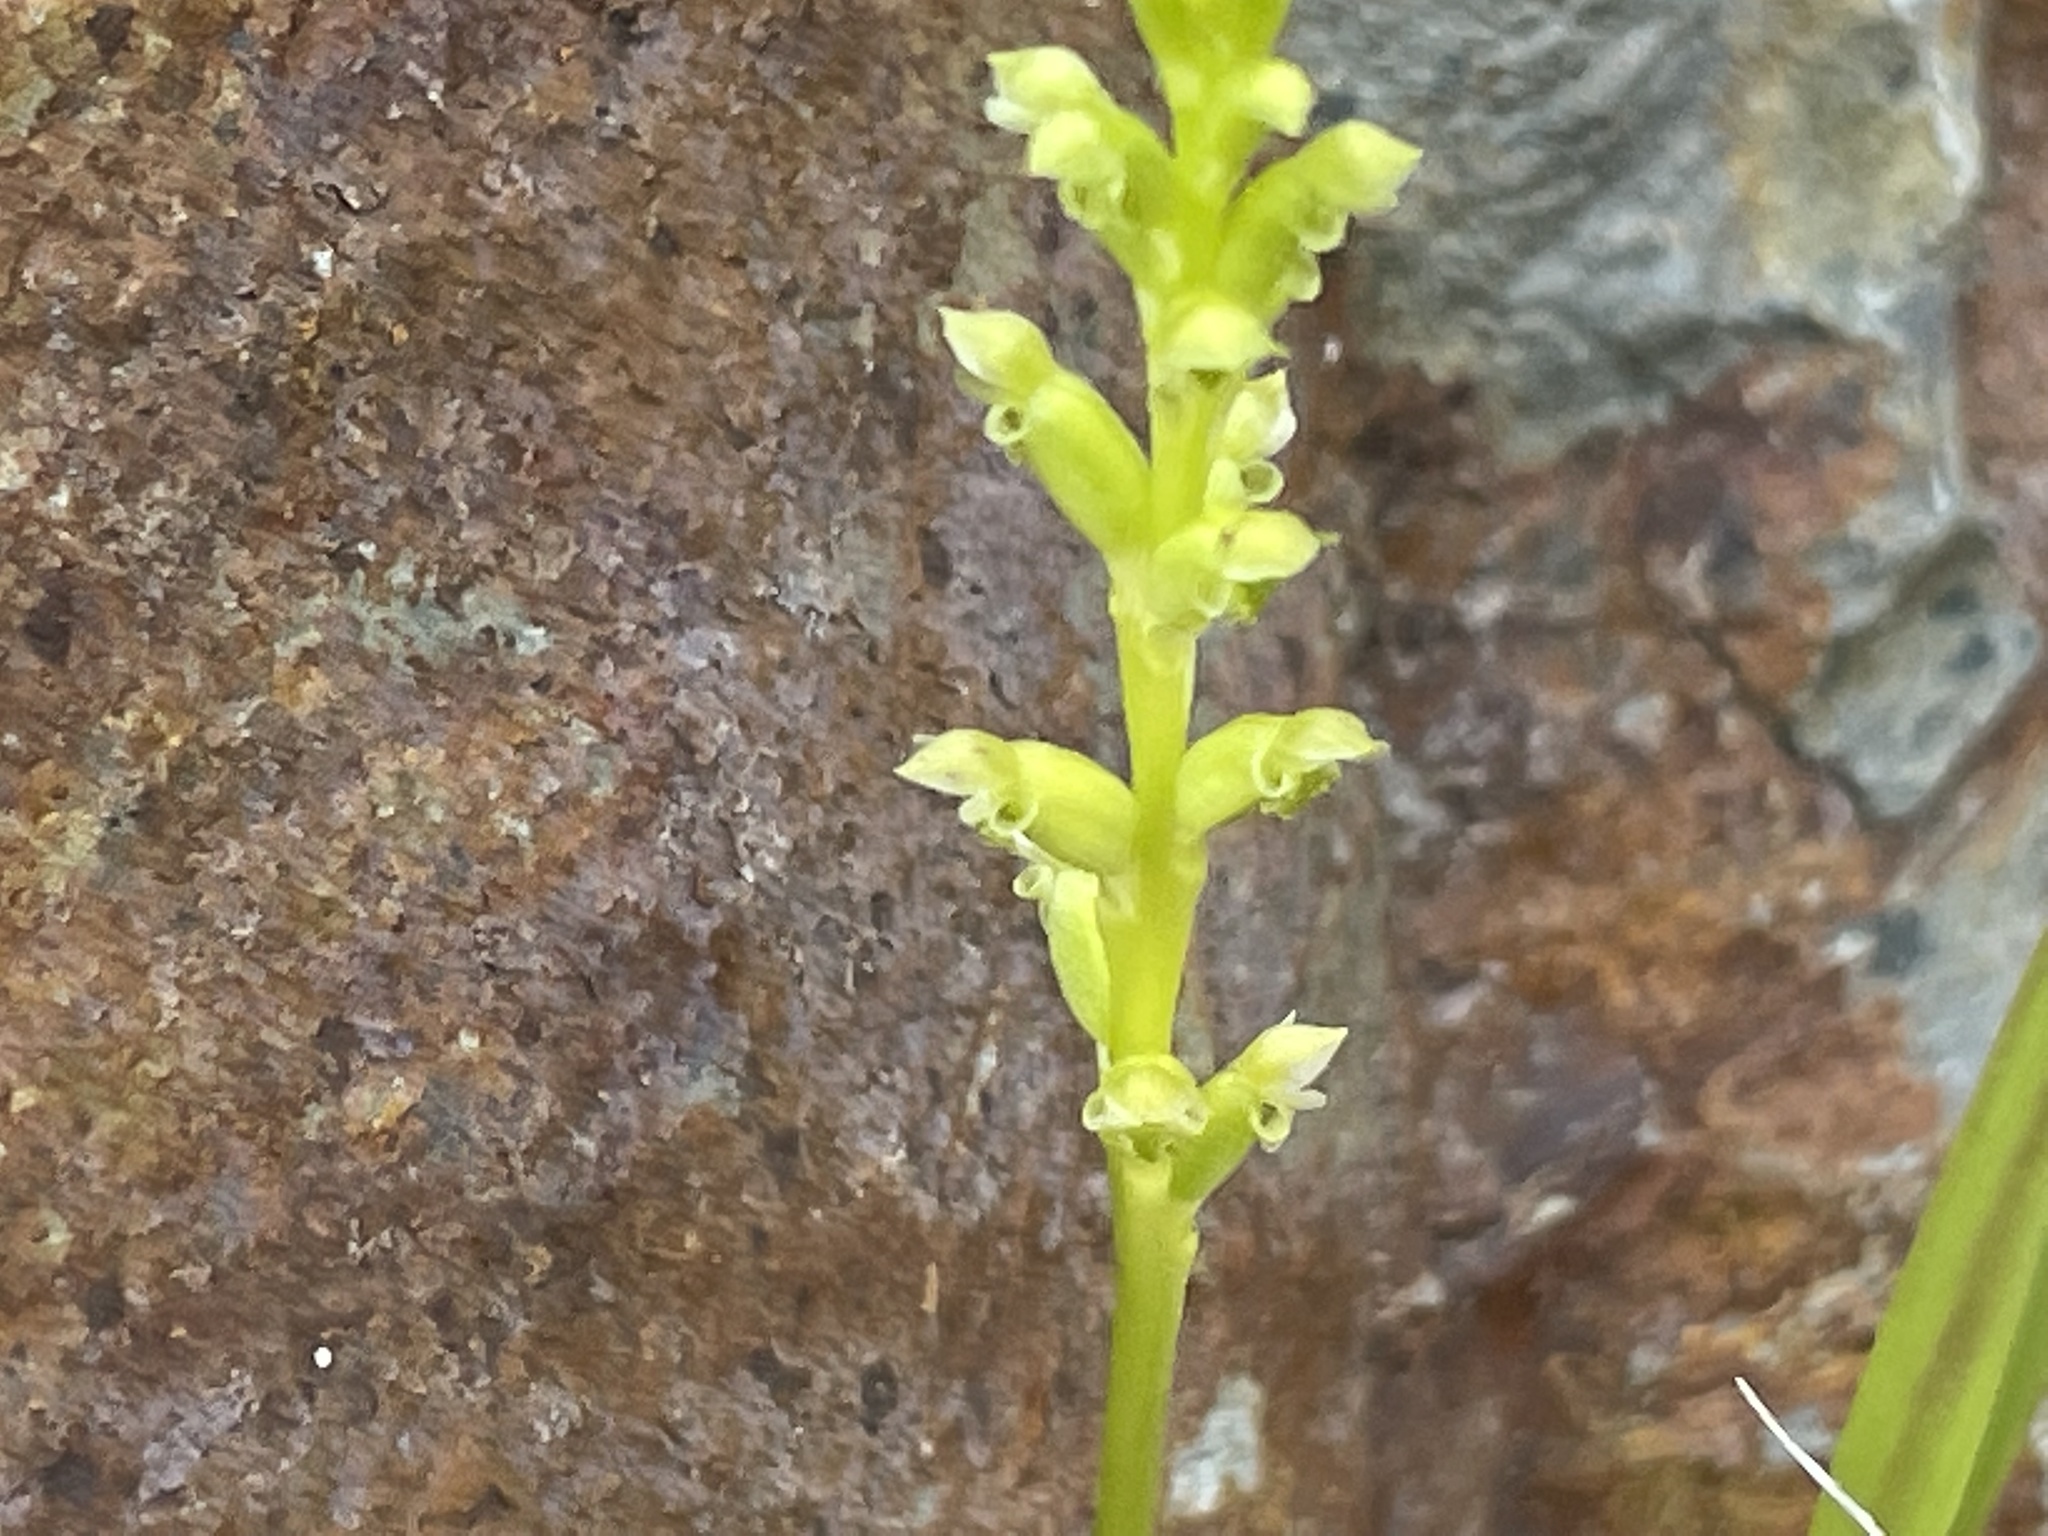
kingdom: Plantae
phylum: Tracheophyta
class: Liliopsida
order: Asparagales
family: Orchidaceae
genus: Microtis
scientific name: Microtis unifolia
